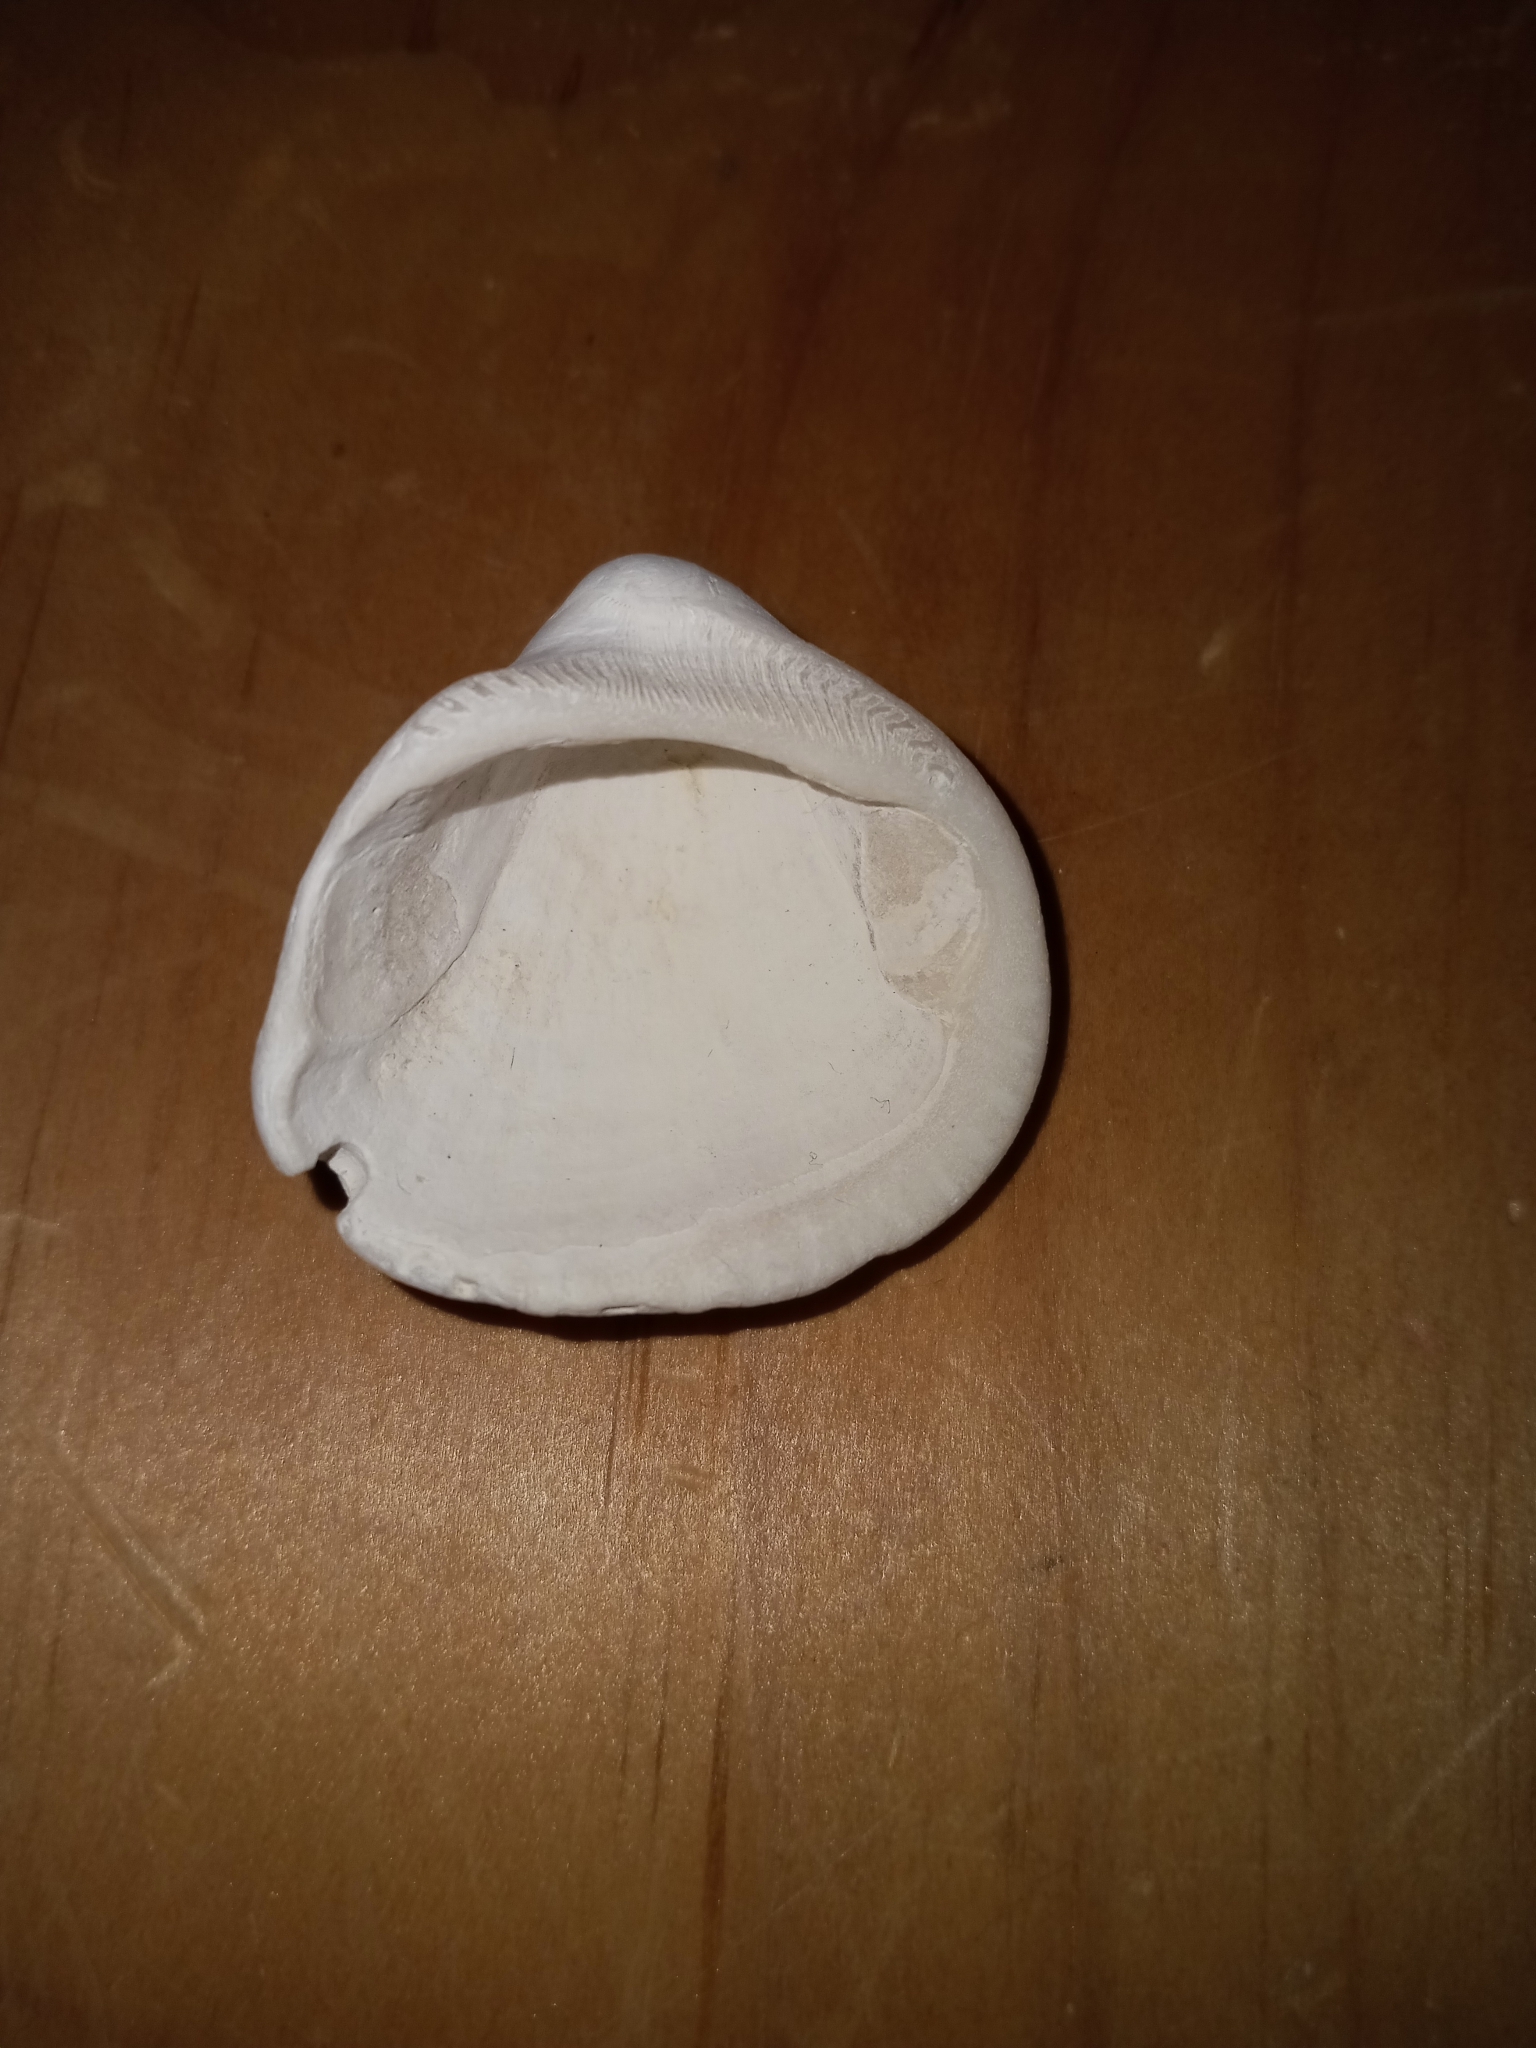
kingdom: Animalia
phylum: Mollusca
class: Bivalvia
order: Arcida
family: Noetiidae
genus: Noetia
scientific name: Noetia ponderosa
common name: Ponderous ark
